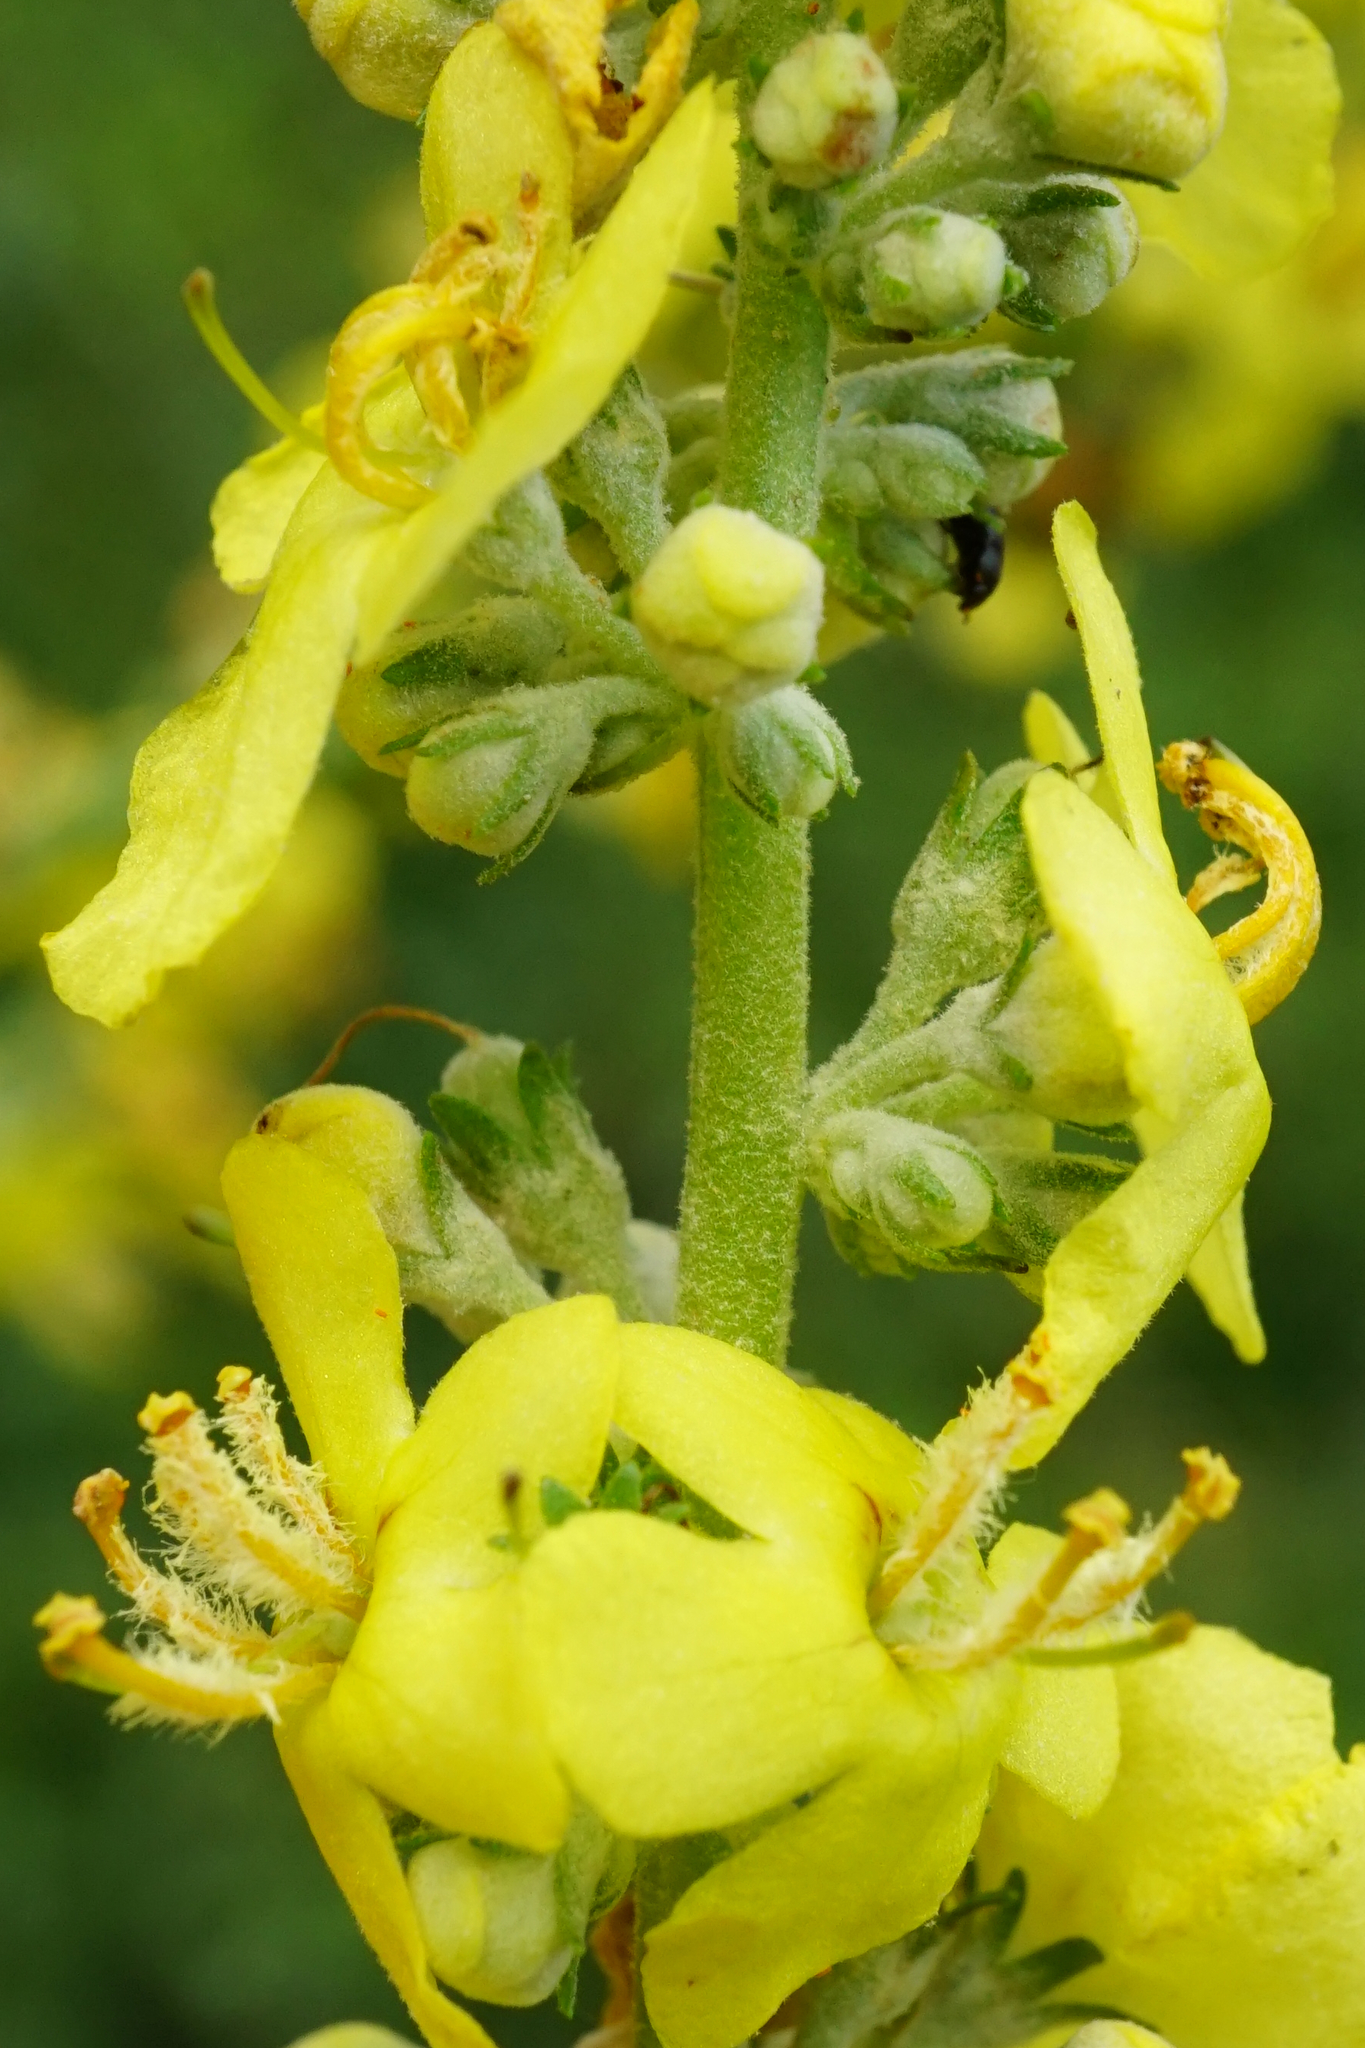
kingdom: Plantae
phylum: Tracheophyta
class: Magnoliopsida
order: Lamiales
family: Scrophulariaceae
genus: Verbascum
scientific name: Verbascum lychnitis
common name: White mullein
